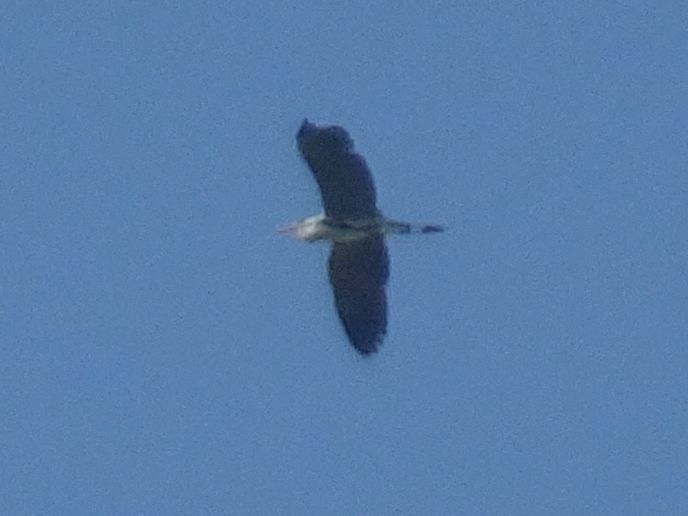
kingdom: Animalia
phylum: Chordata
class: Aves
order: Pelecaniformes
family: Ardeidae
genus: Ardea
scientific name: Ardea cinerea
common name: Grey heron
